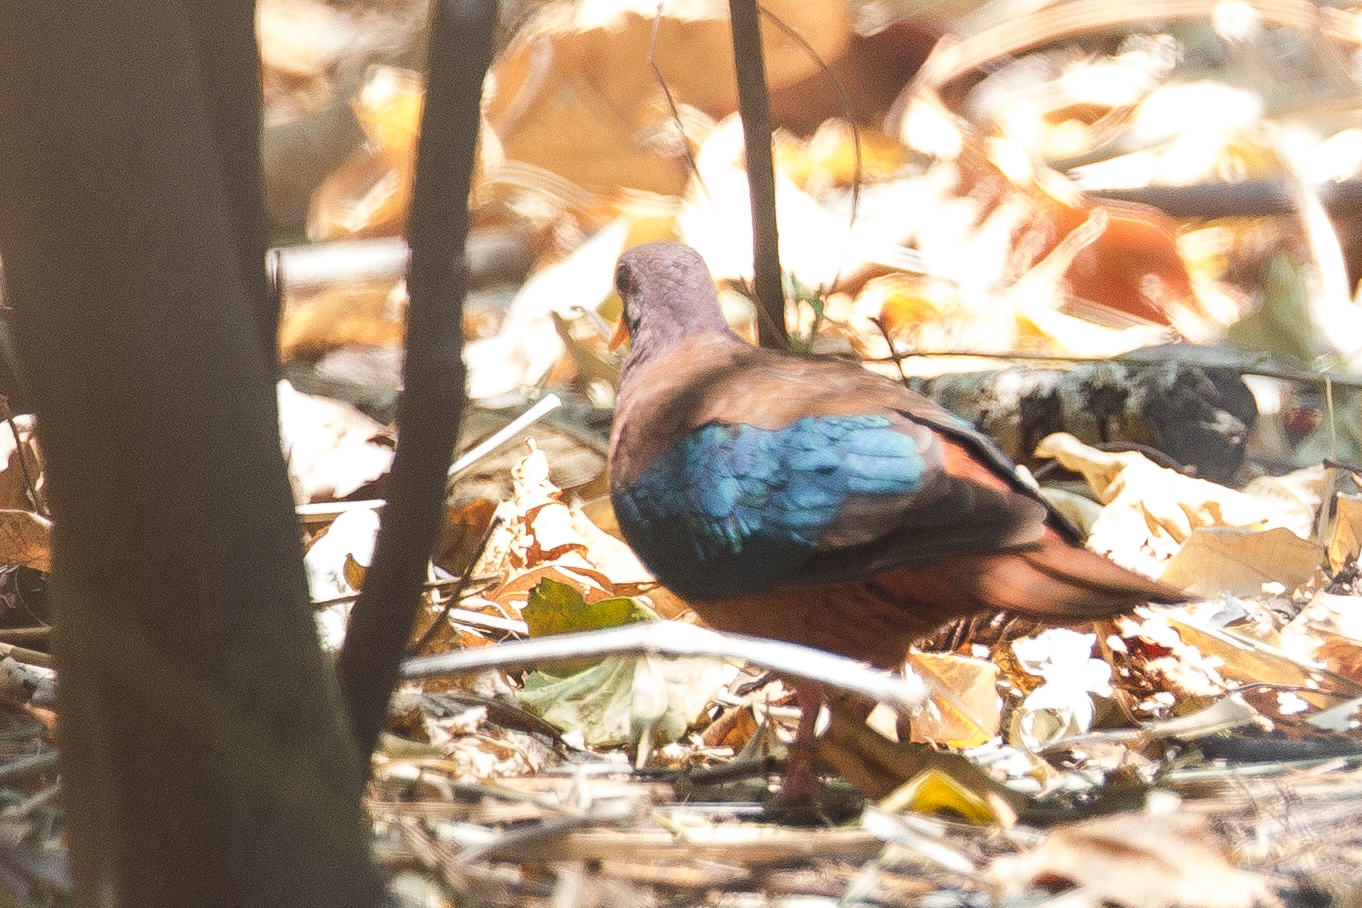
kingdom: Animalia
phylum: Chordata
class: Aves
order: Columbiformes
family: Columbidae
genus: Chalcophaps
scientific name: Chalcophaps stephani
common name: Stephan's emerald dove
